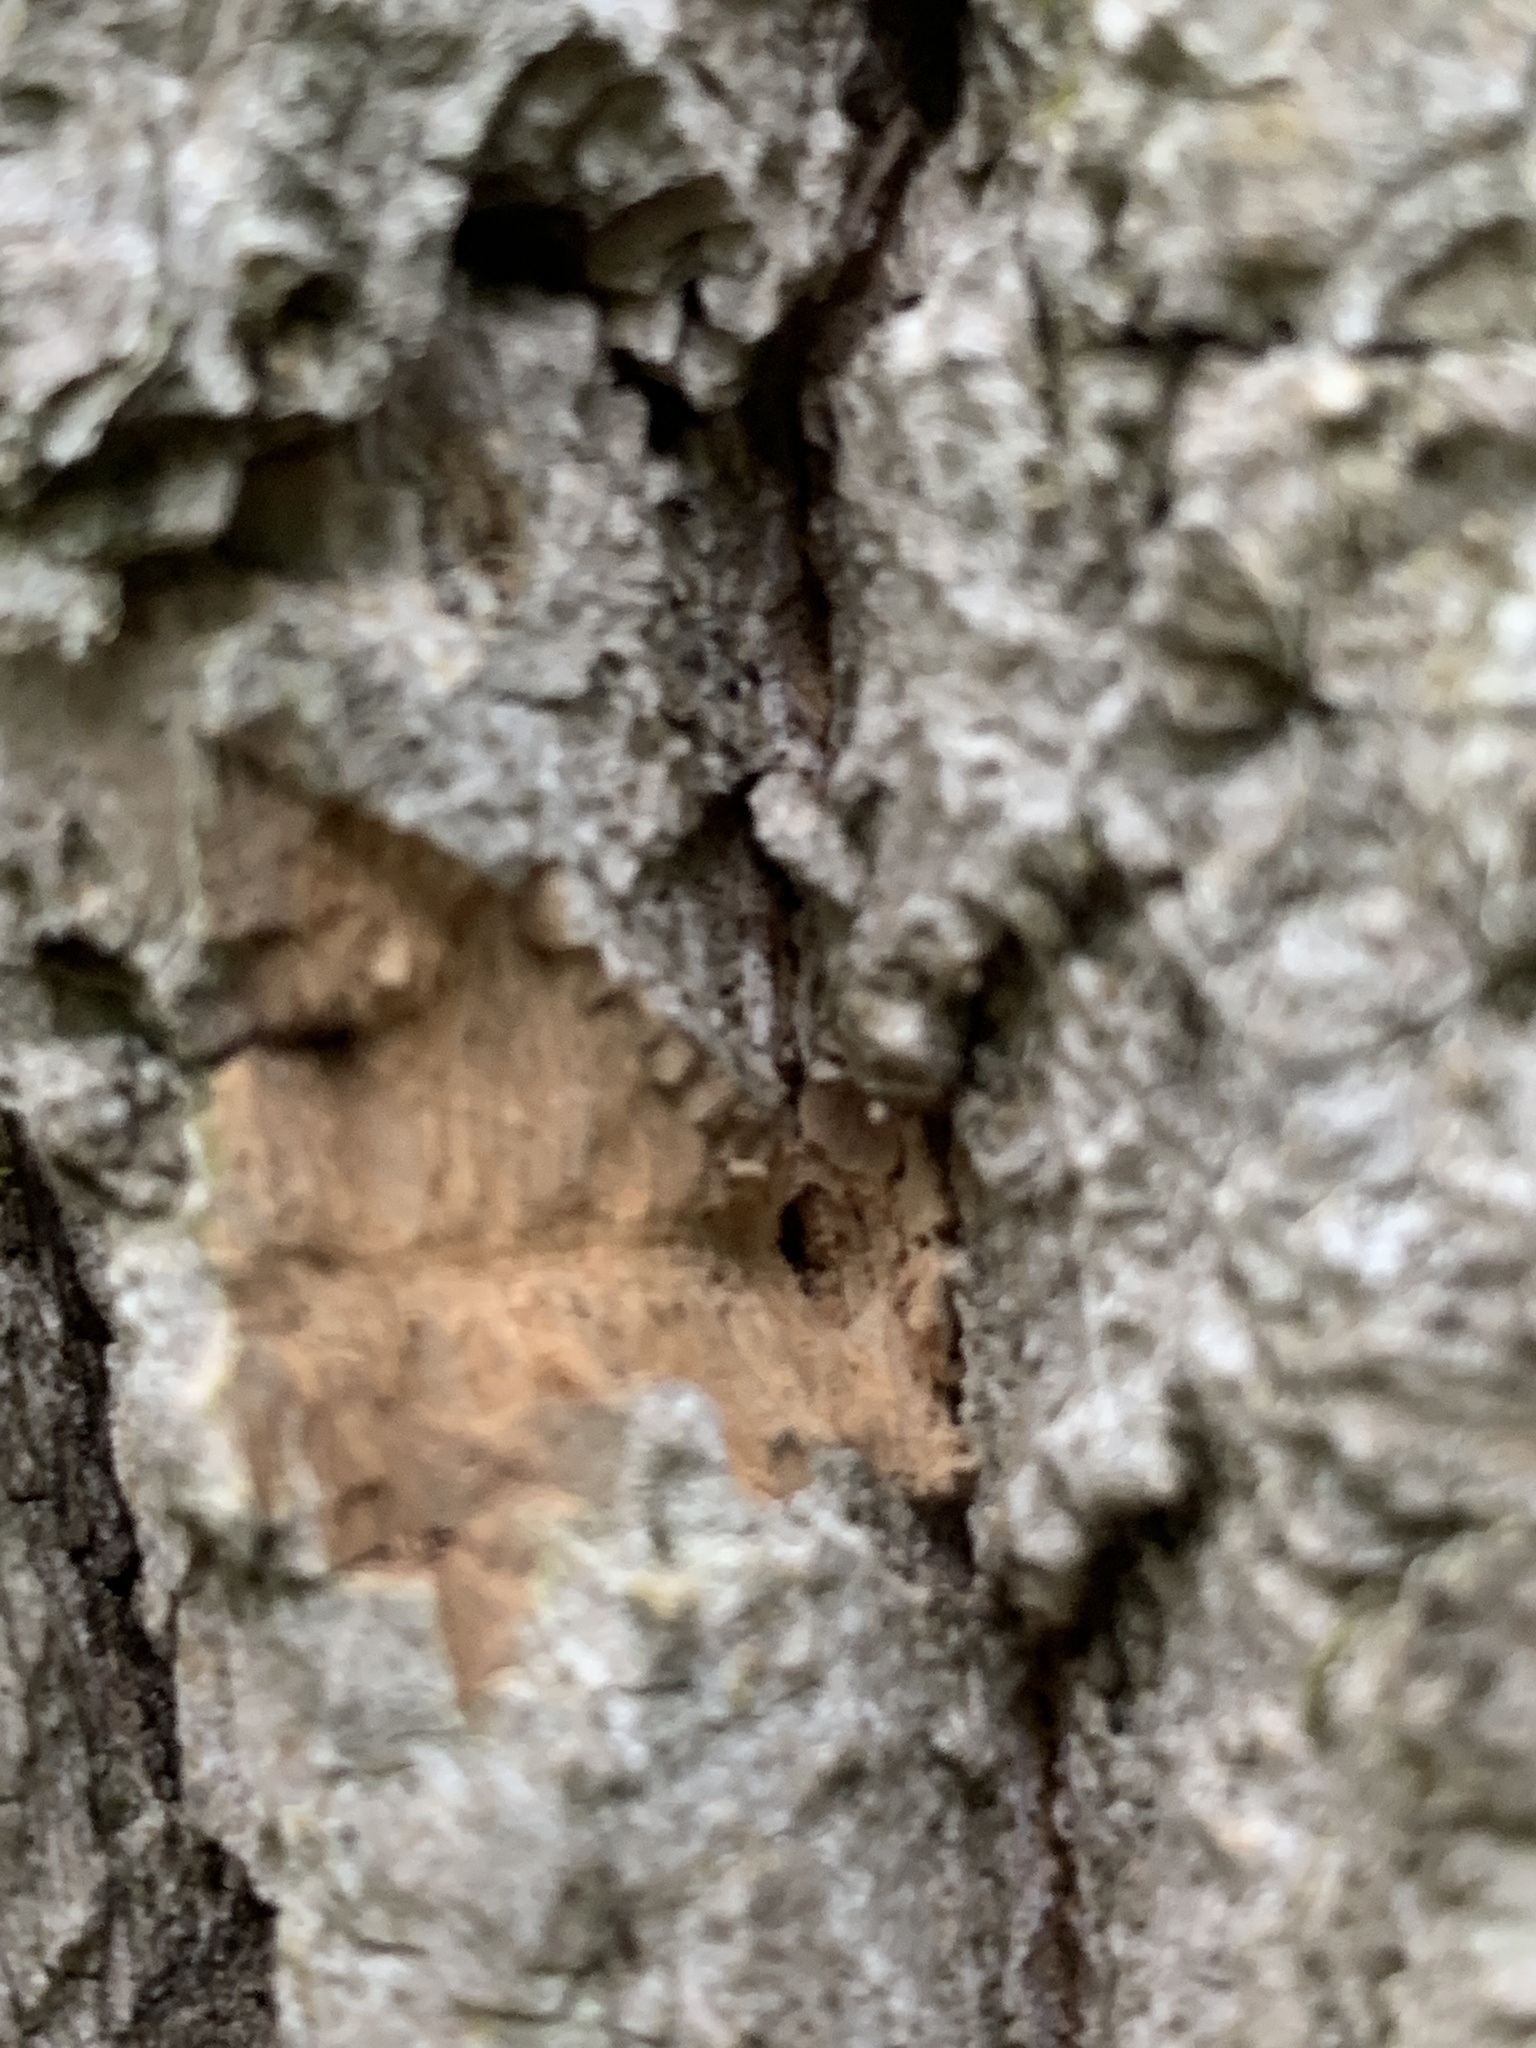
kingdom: Animalia
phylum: Arthropoda
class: Insecta
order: Coleoptera
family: Buprestidae
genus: Agrilus
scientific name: Agrilus planipennis
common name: Emerald ash borer
